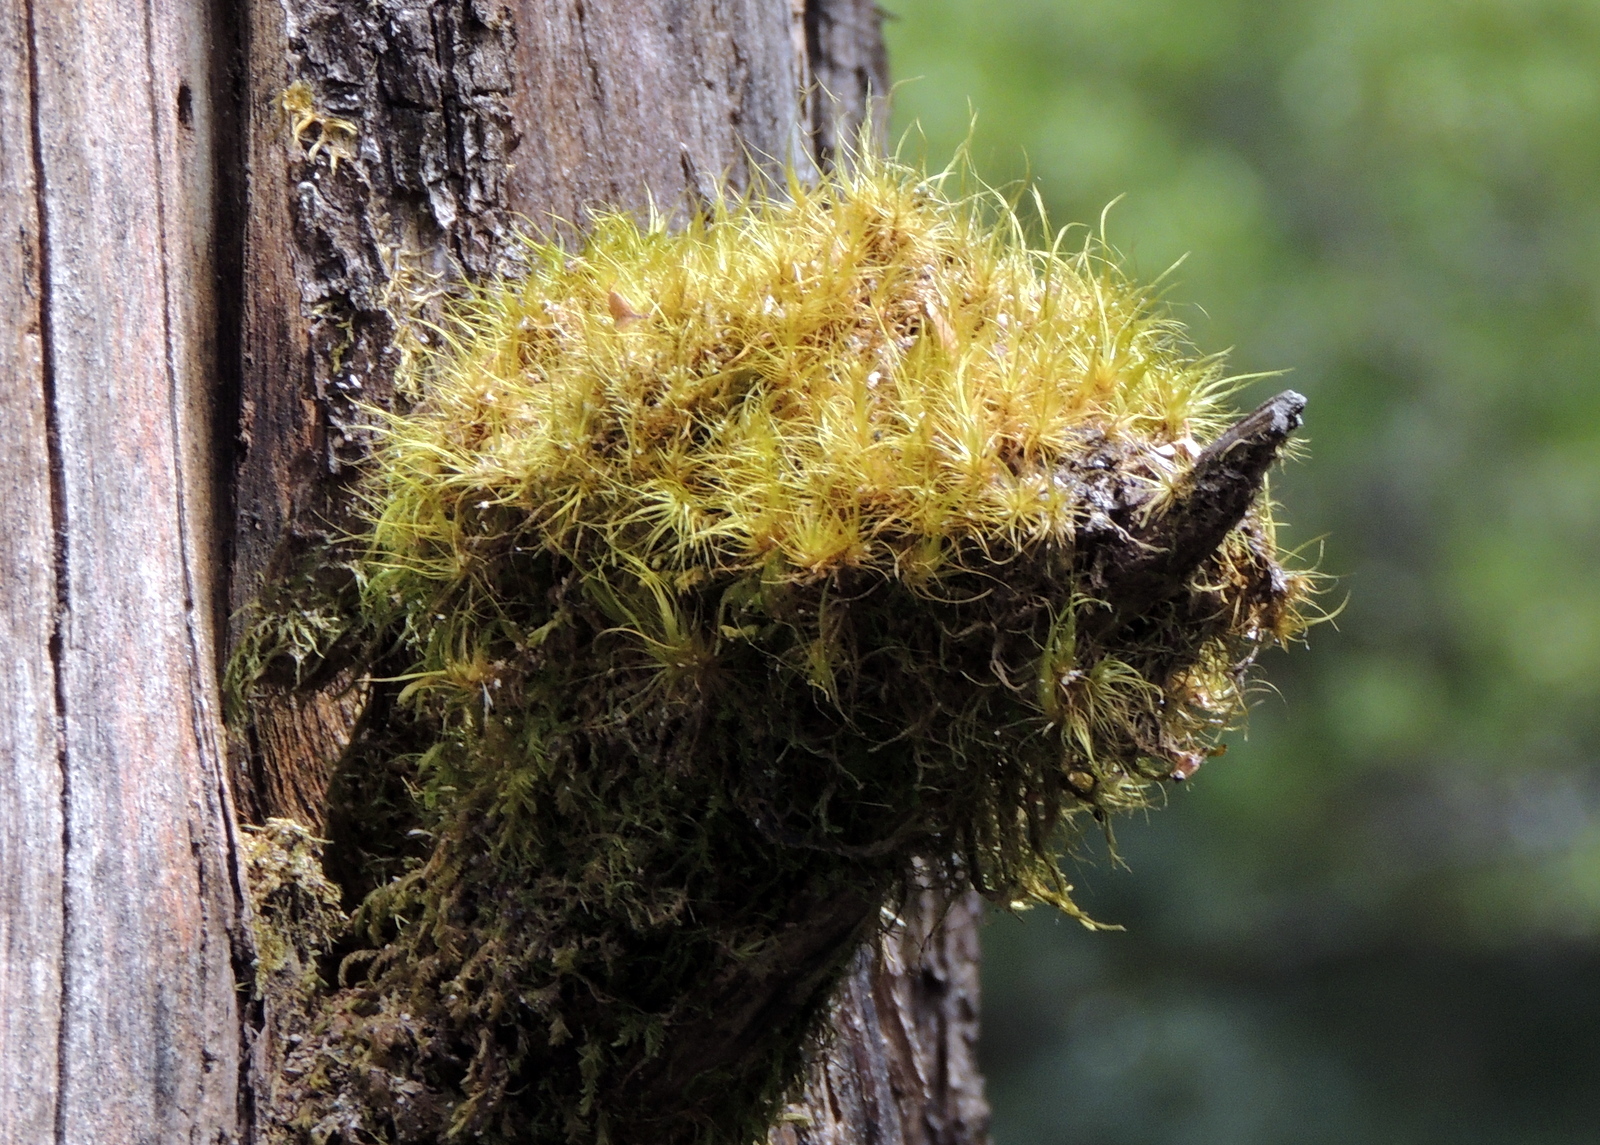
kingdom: Plantae
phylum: Bryophyta
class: Bryopsida
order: Dicranales
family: Dicranaceae
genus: Dicranoloma
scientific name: Dicranoloma robustum
